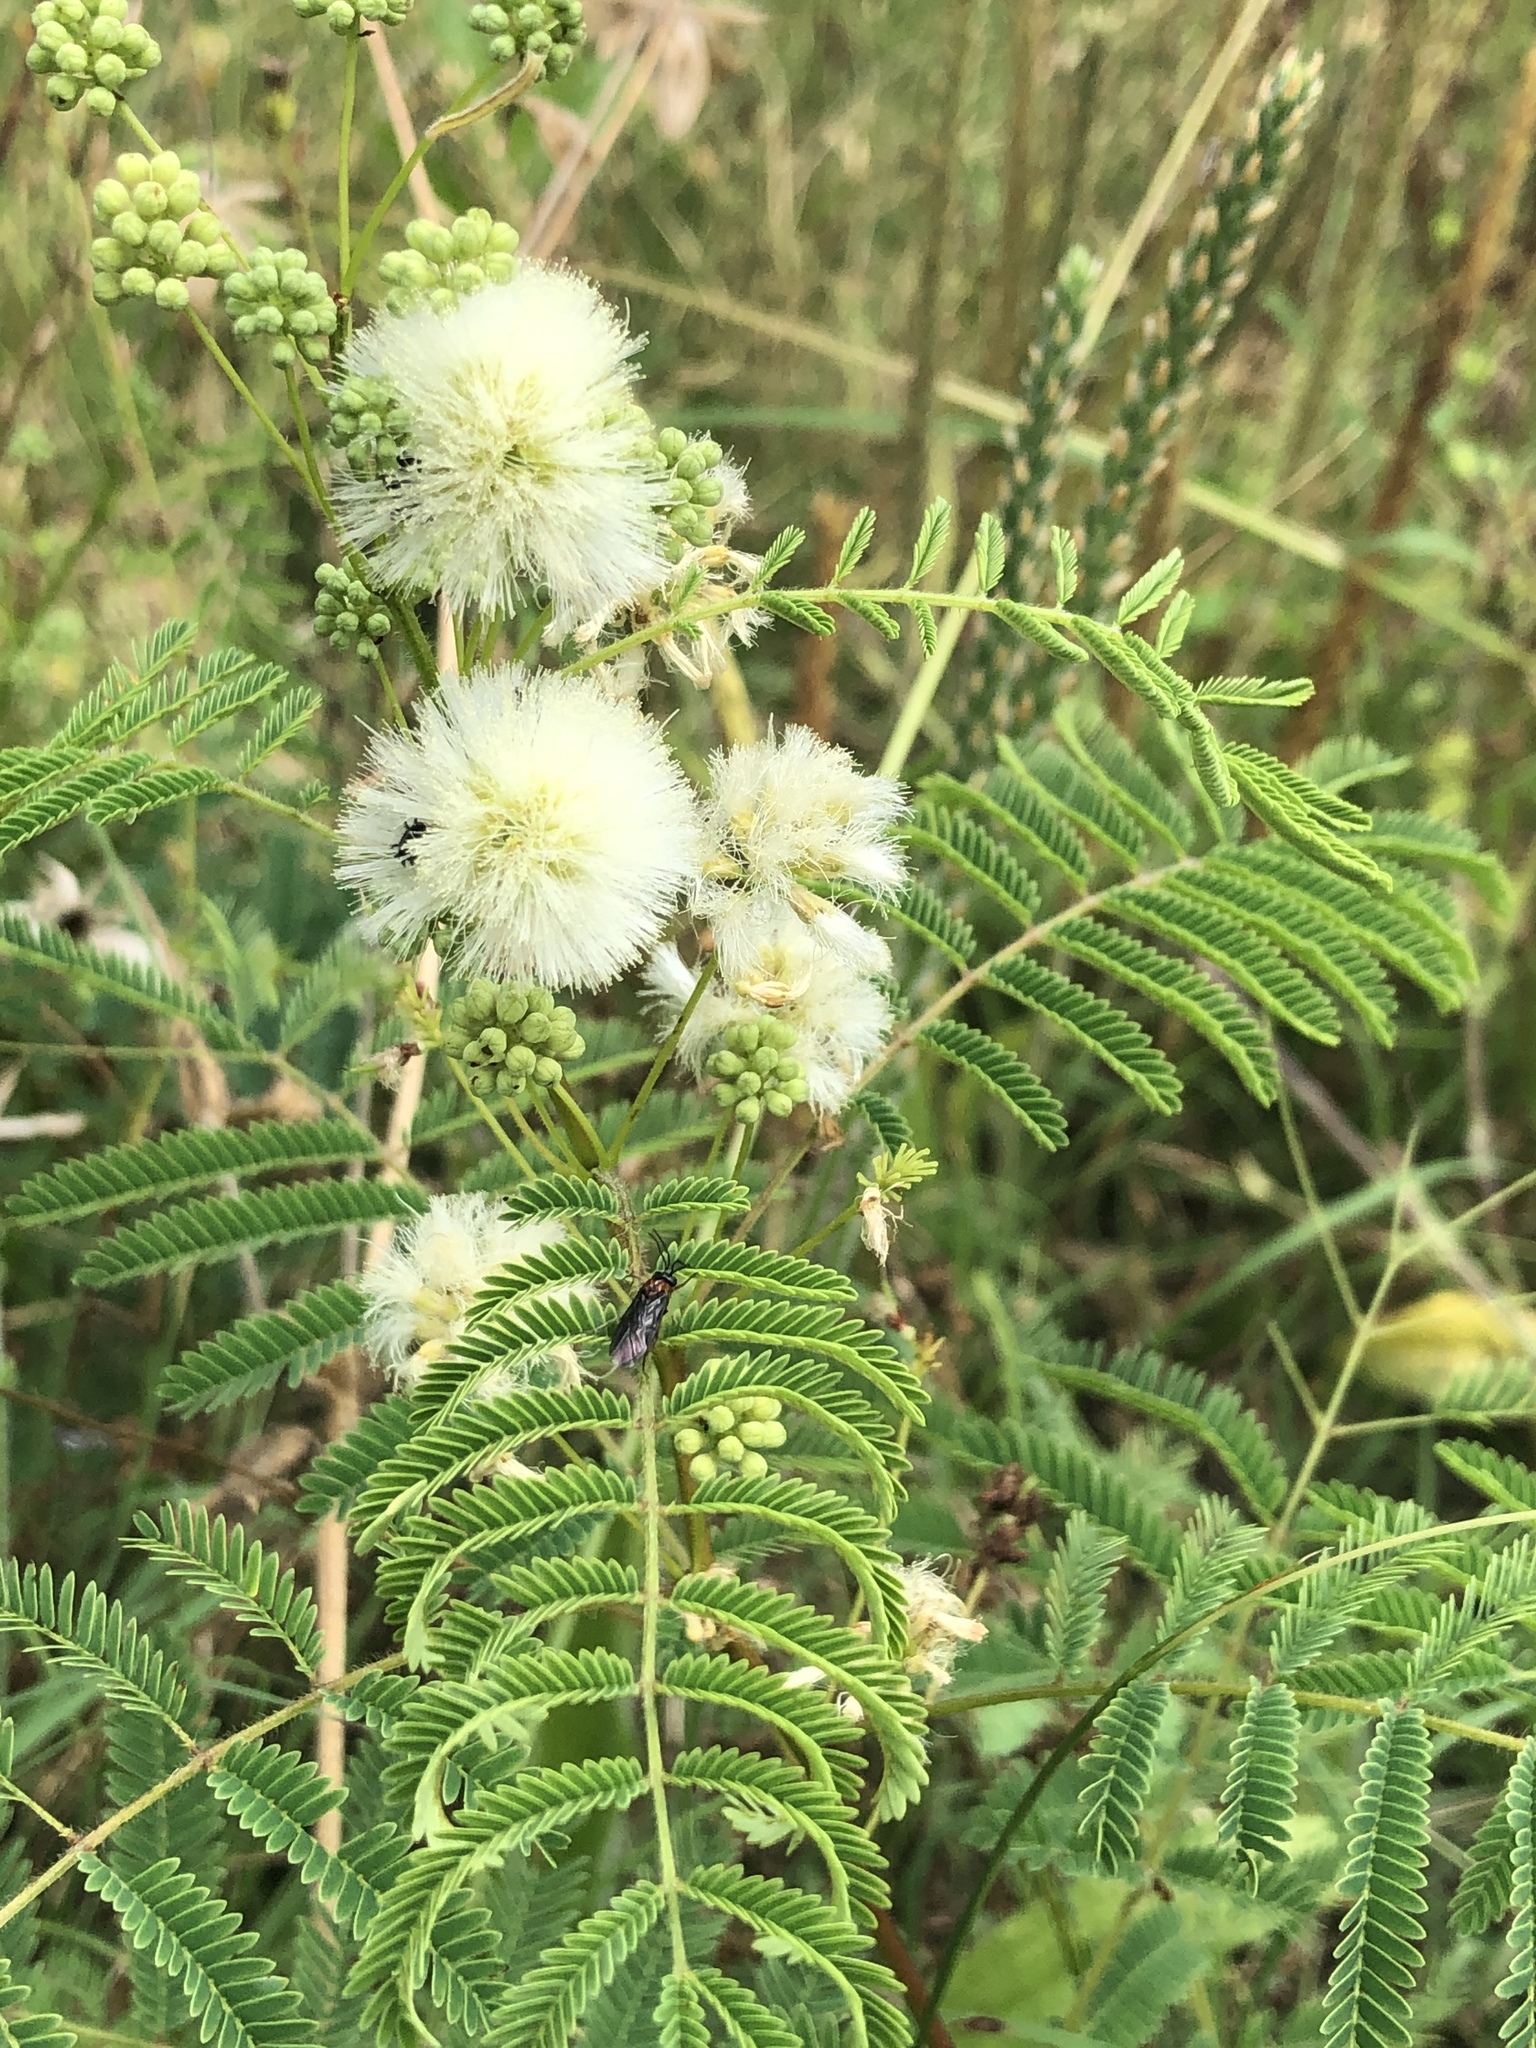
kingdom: Plantae
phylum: Tracheophyta
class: Magnoliopsida
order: Fabales
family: Fabaceae
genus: Acaciella
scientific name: Acaciella angustissima
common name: Prairie acacia
